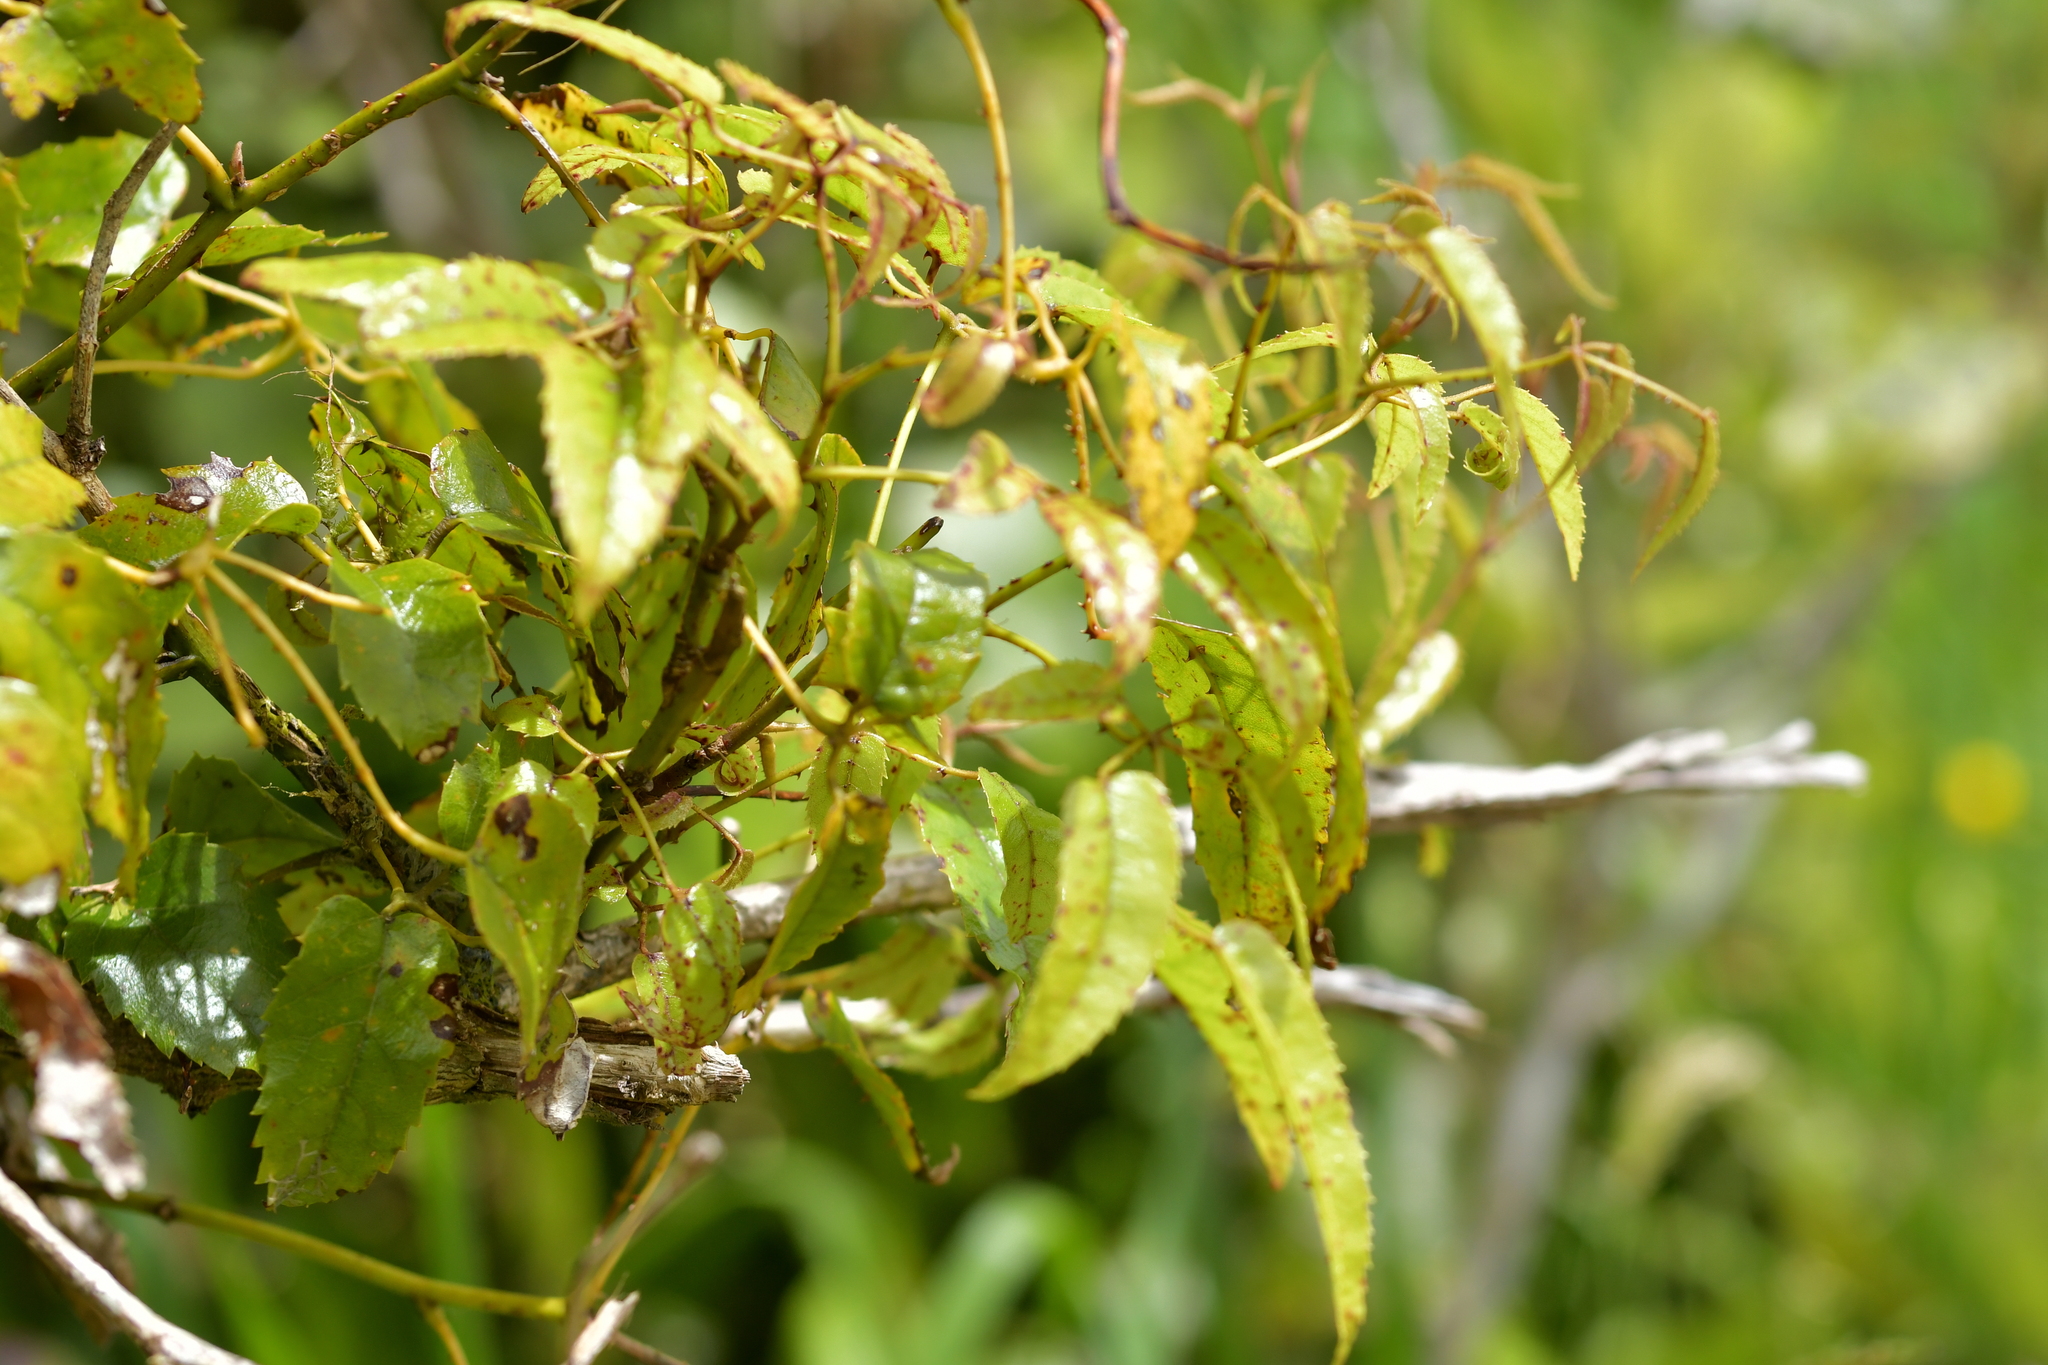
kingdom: Plantae
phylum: Tracheophyta
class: Magnoliopsida
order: Rosales
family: Rosaceae
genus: Rubus
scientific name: Rubus cissoides
